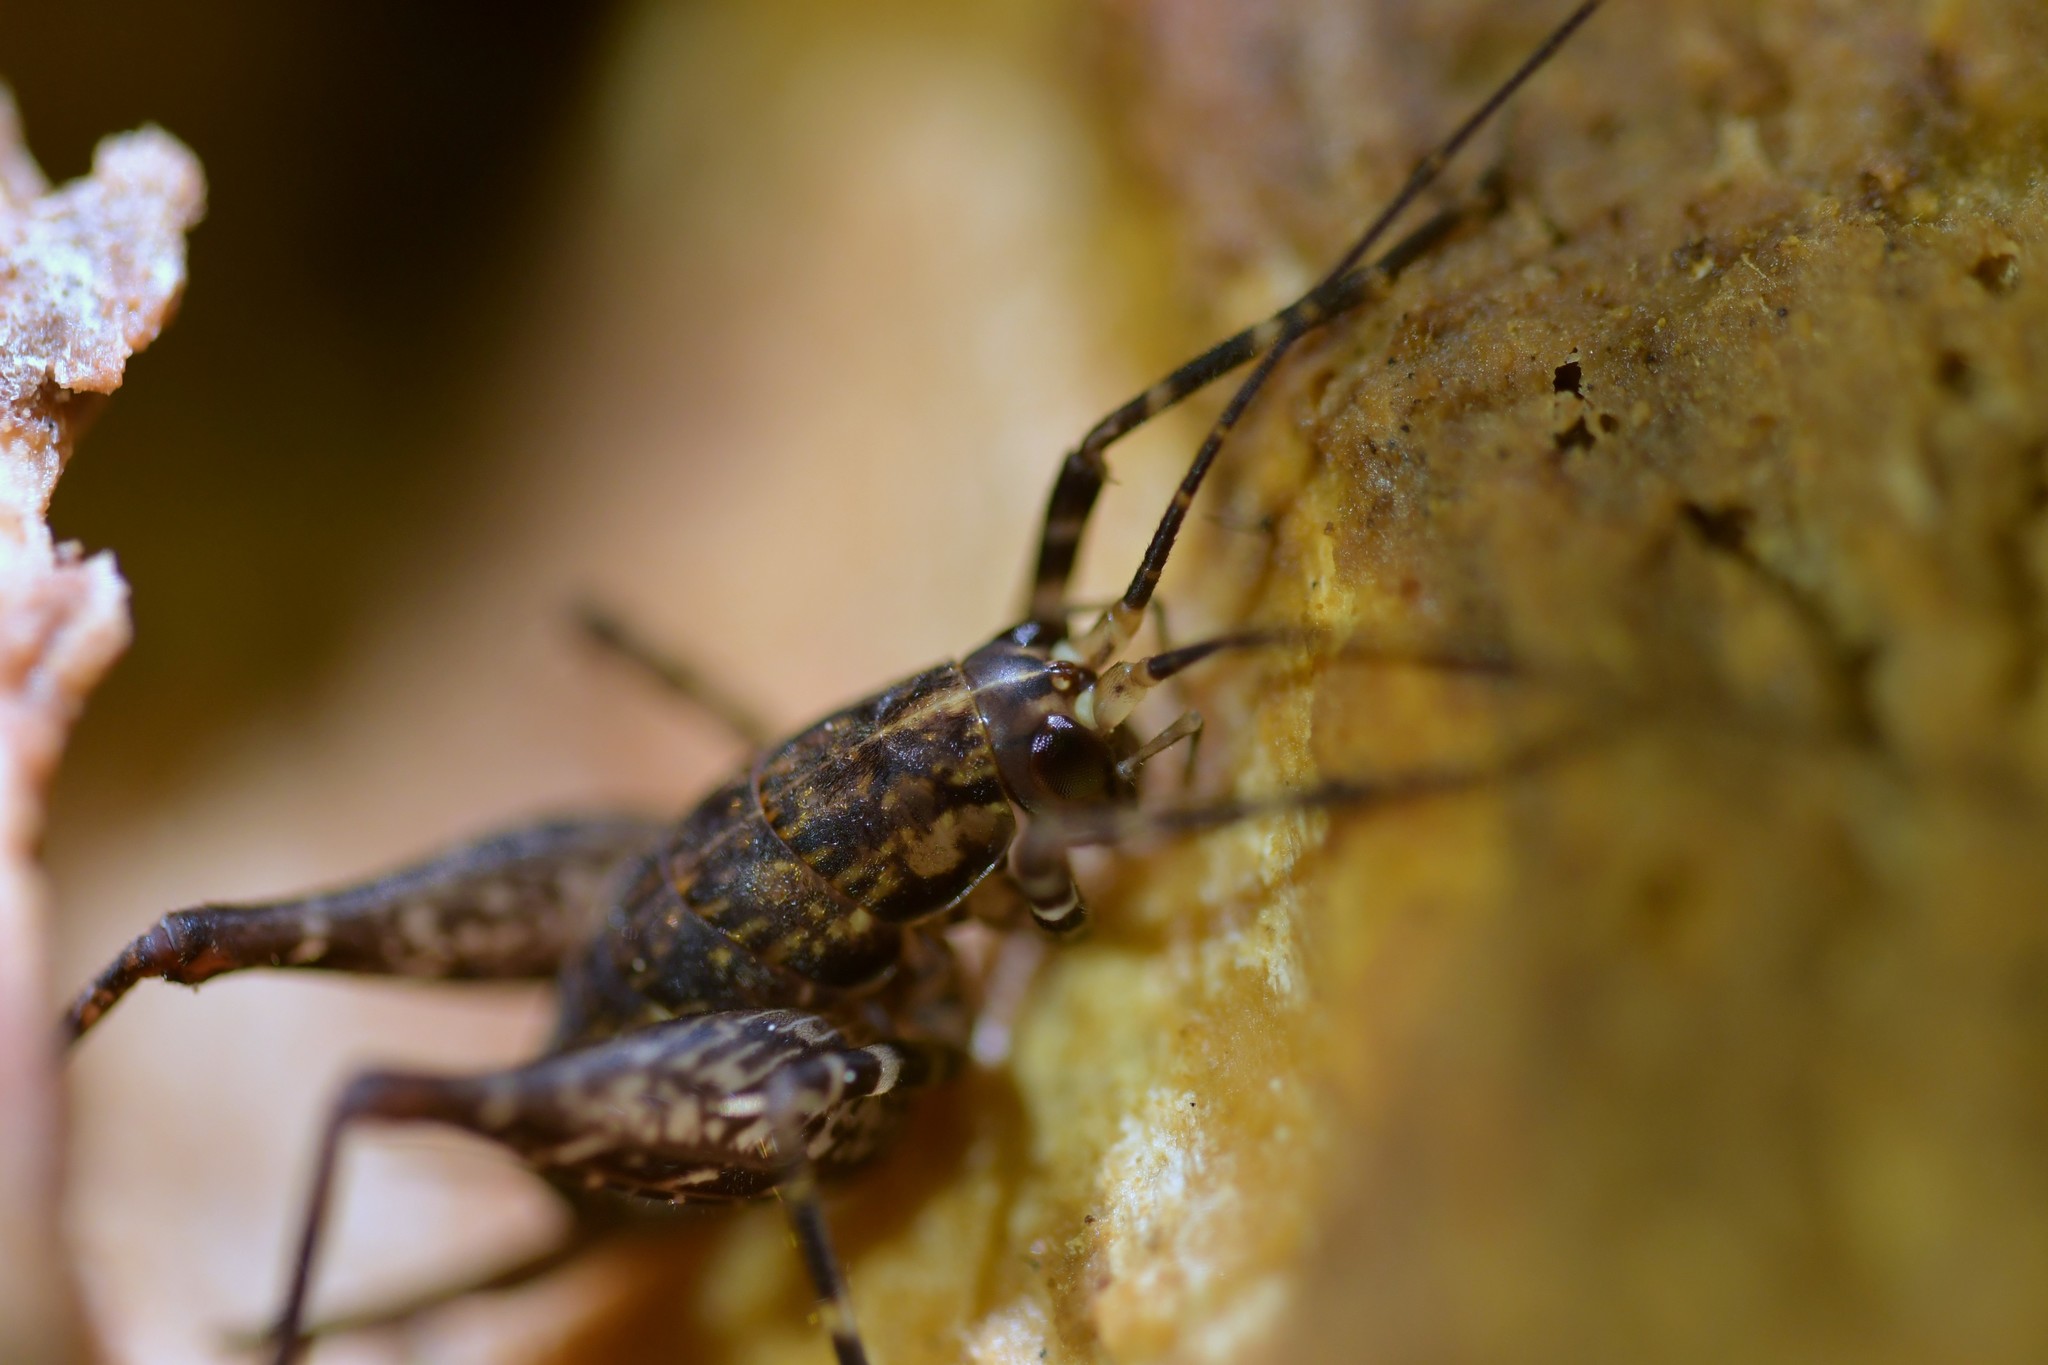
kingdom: Animalia
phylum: Arthropoda
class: Insecta
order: Orthoptera
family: Rhaphidophoridae
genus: Pleioplectron
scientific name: Pleioplectron hudsoni
